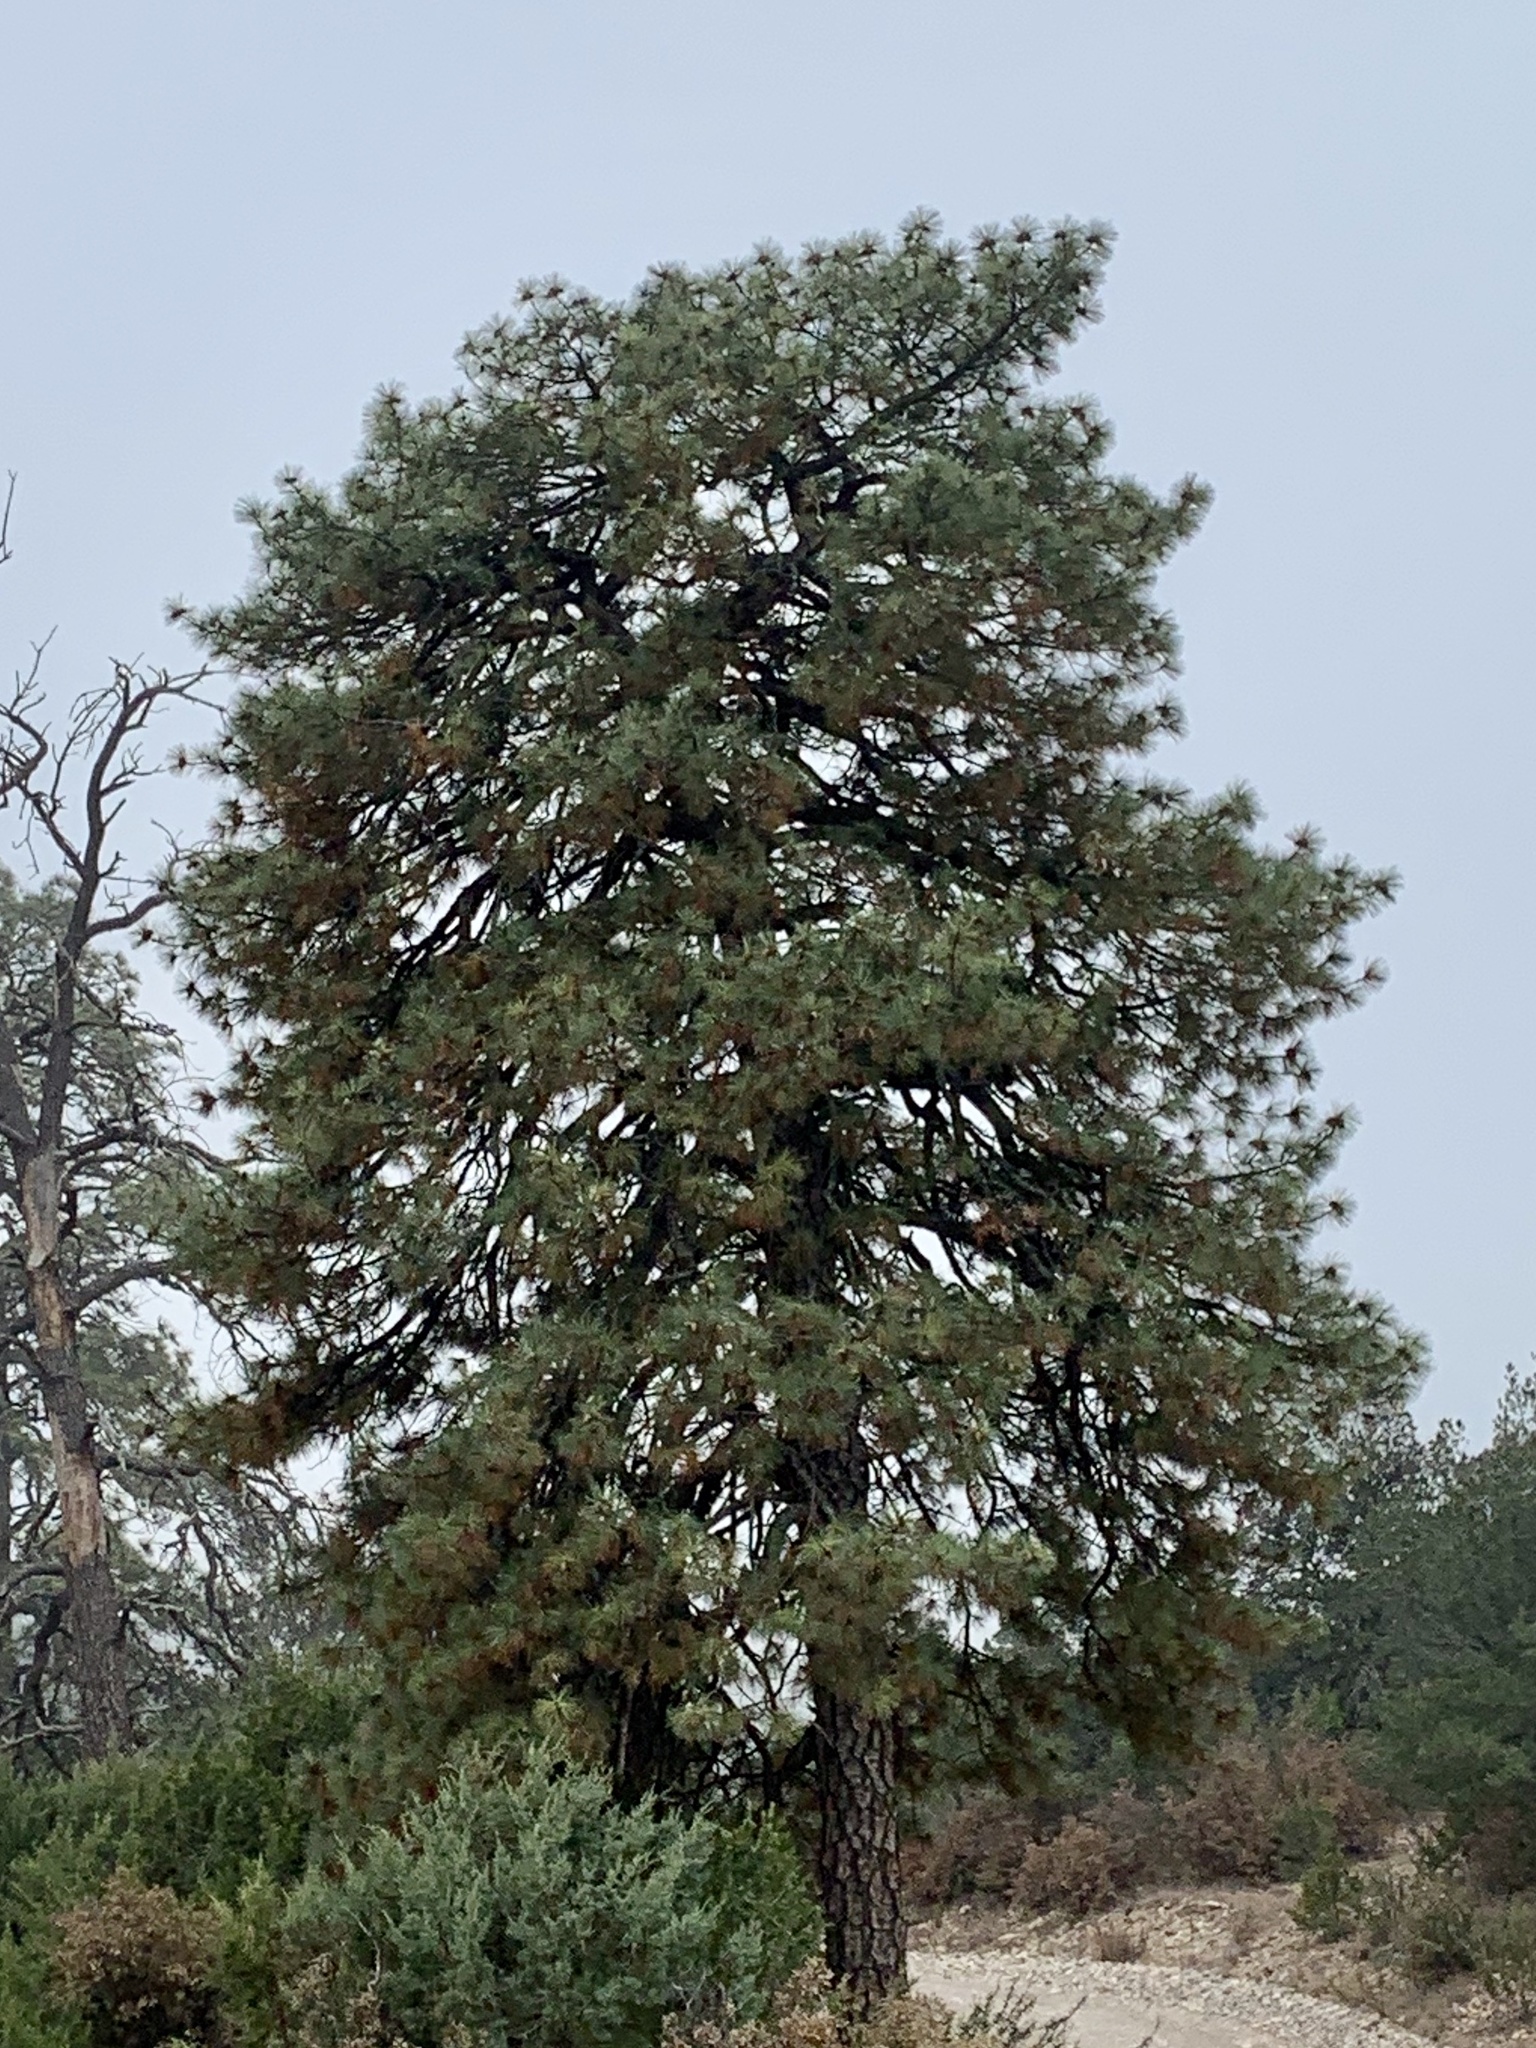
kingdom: Plantae
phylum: Tracheophyta
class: Pinopsida
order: Pinales
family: Pinaceae
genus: Pinus
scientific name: Pinus ponderosa
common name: Western yellow-pine
